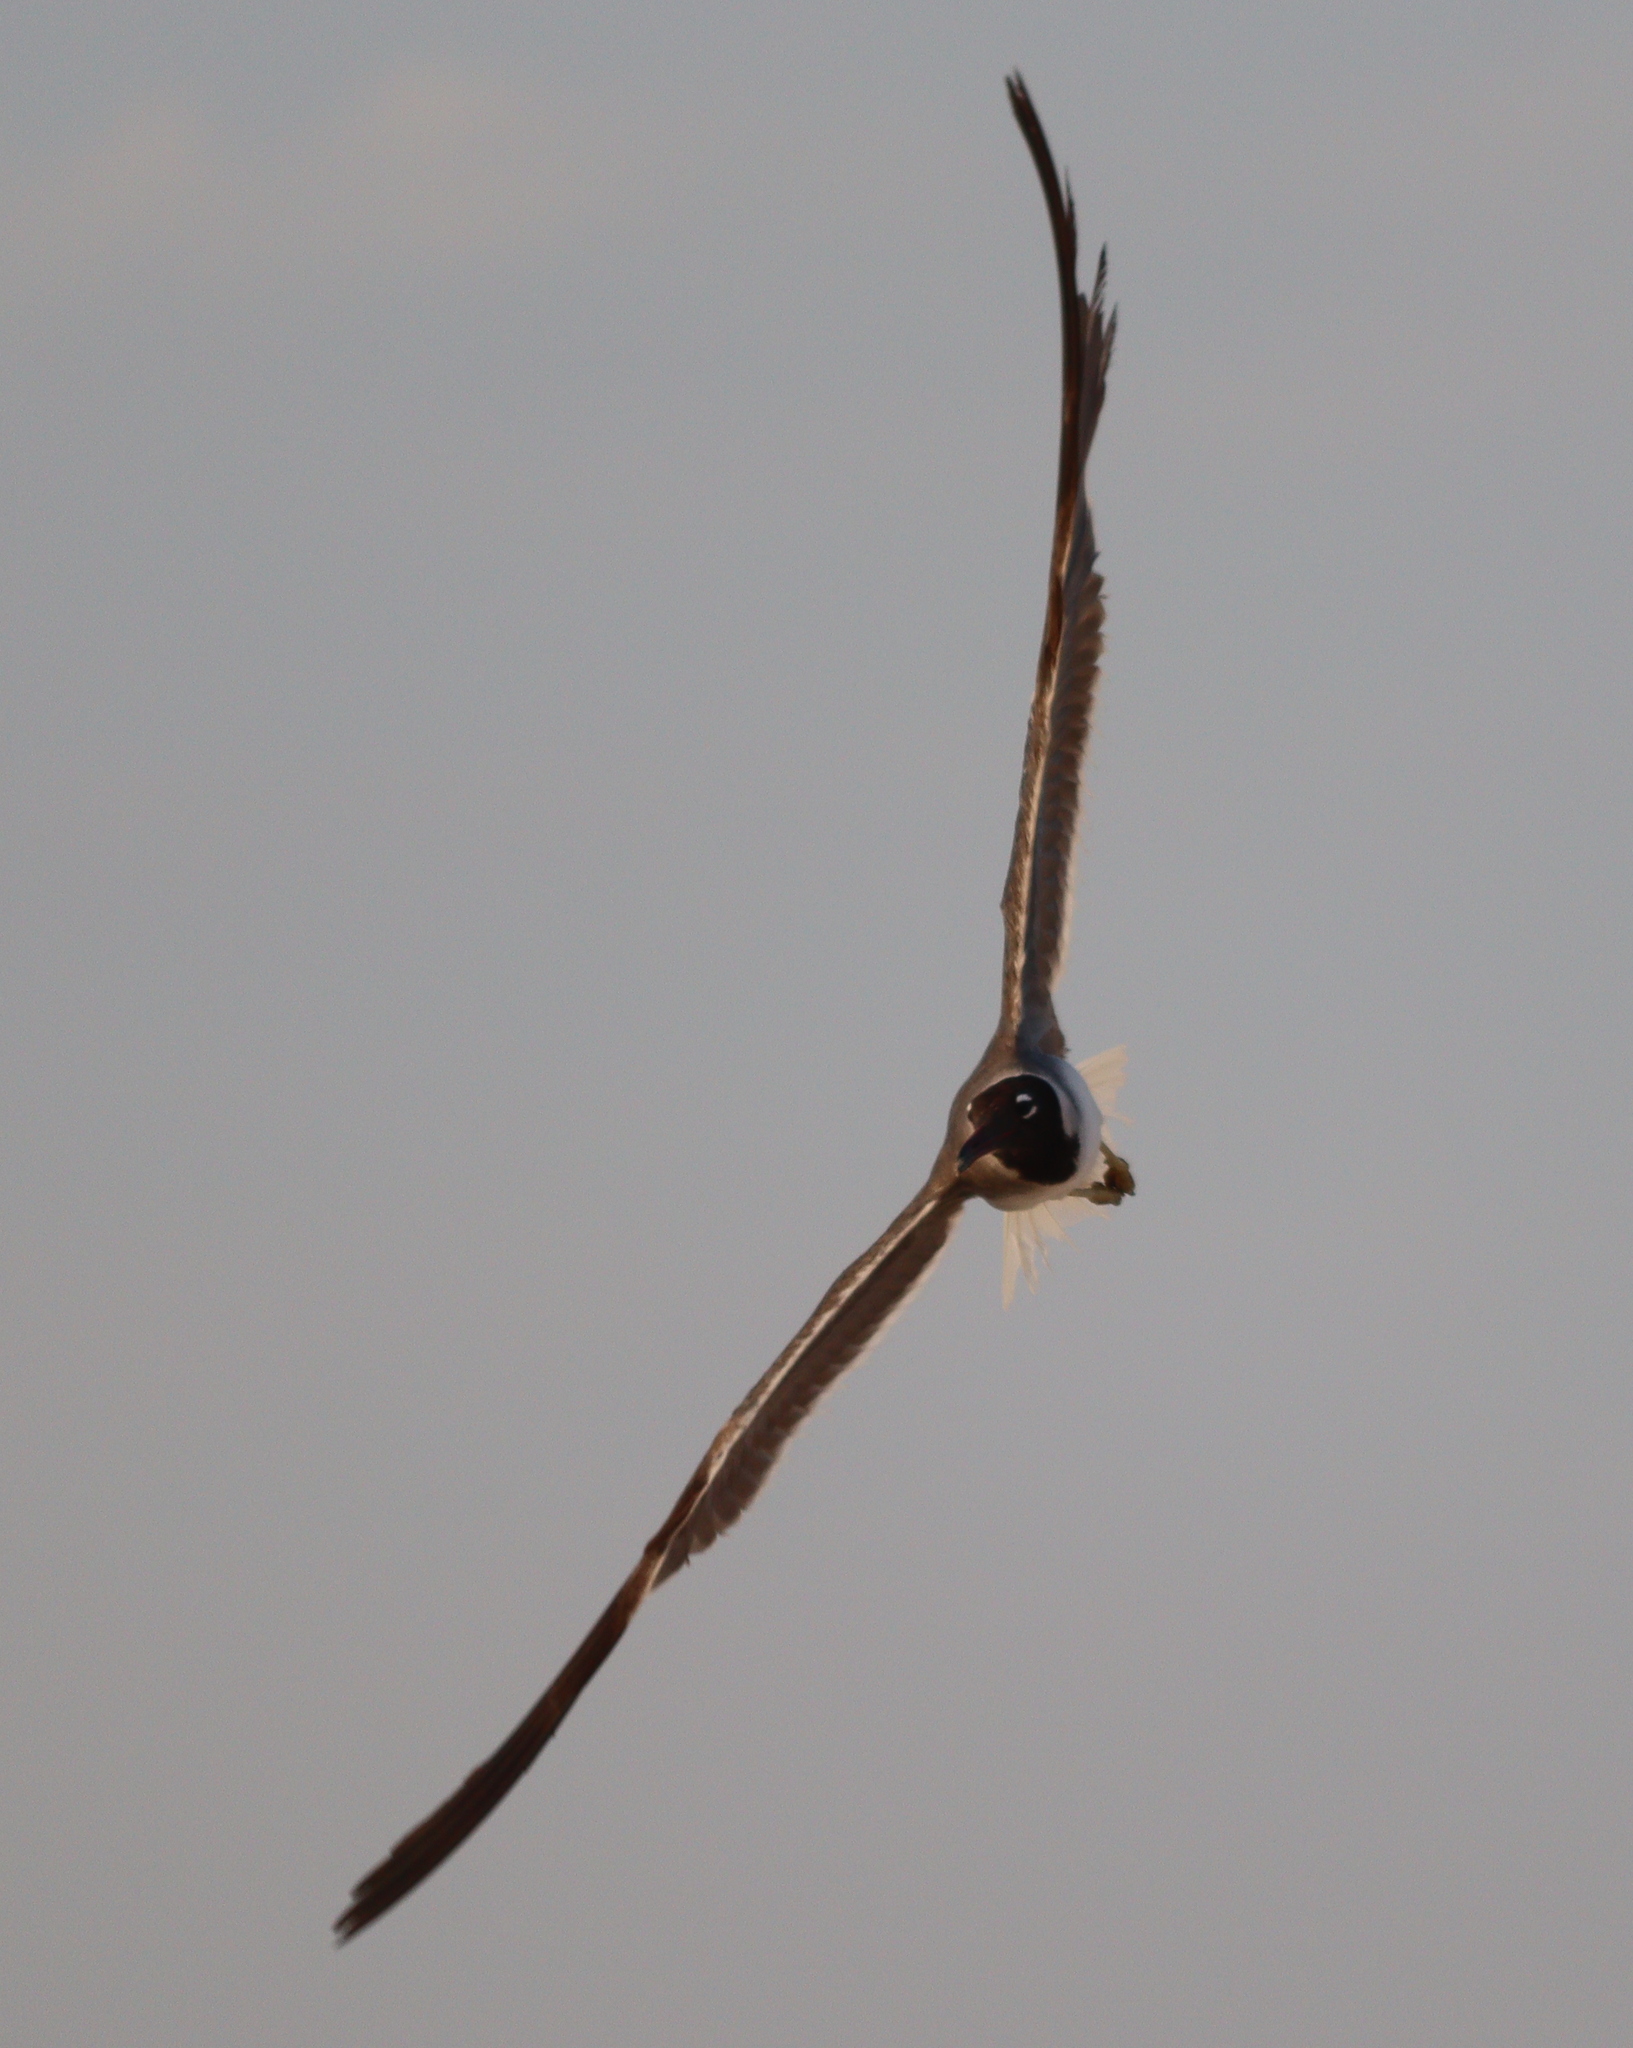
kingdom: Animalia
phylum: Chordata
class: Aves
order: Charadriiformes
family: Laridae
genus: Ichthyaetus
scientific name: Ichthyaetus leucophthalmus
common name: White-eyed gull
